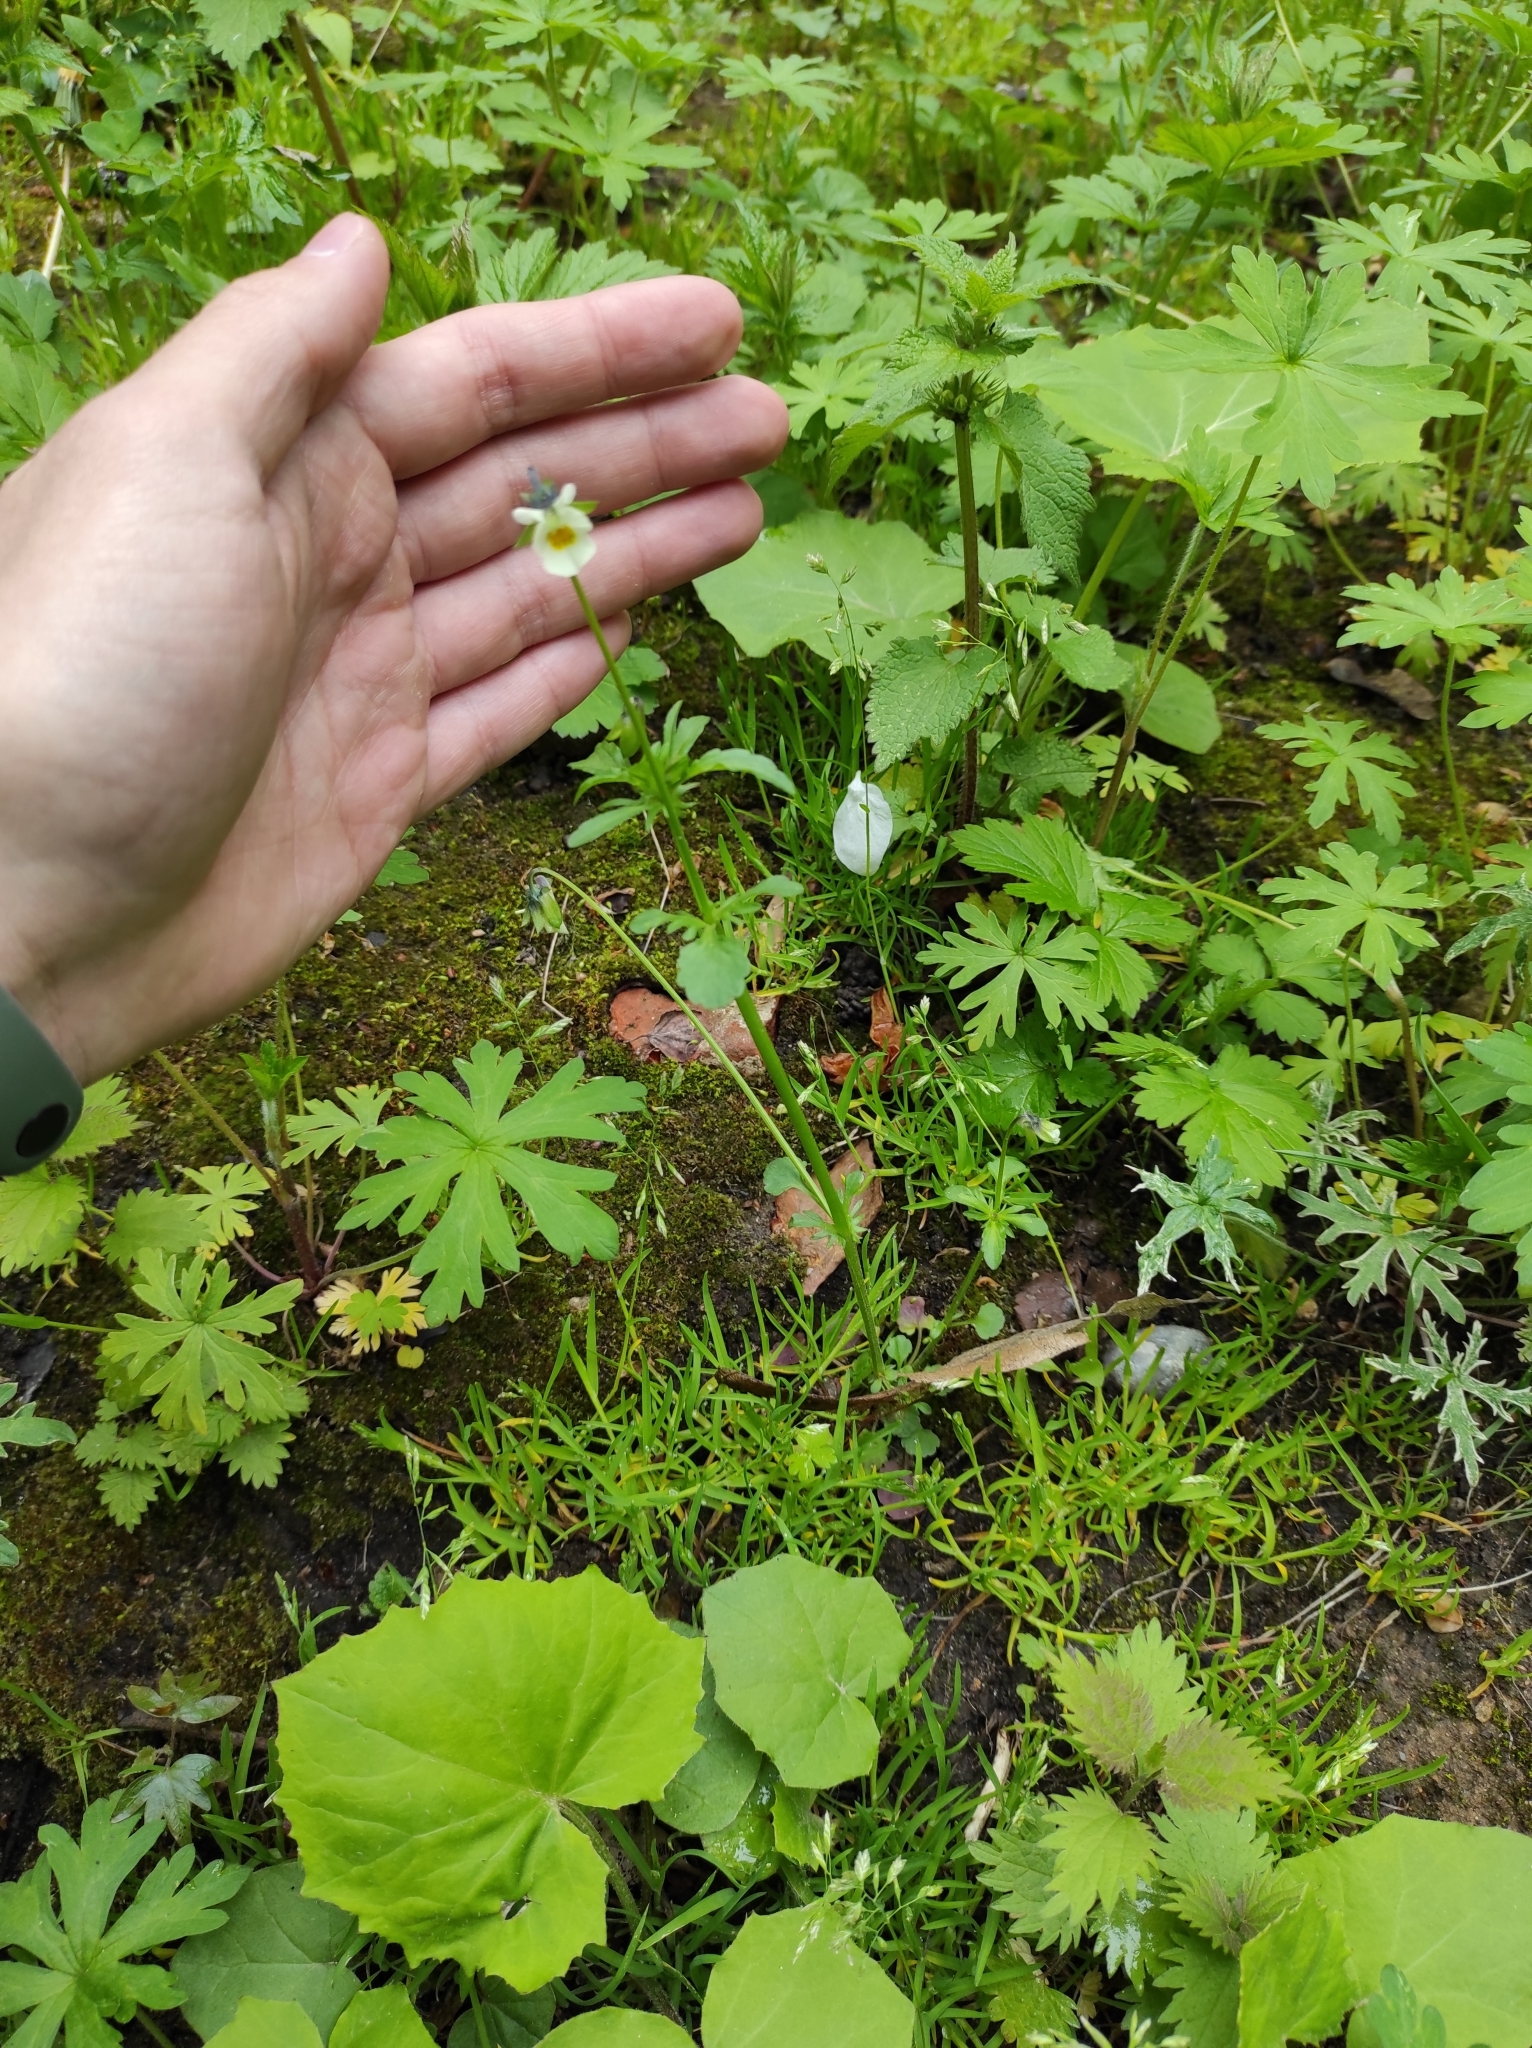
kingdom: Plantae
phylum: Tracheophyta
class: Magnoliopsida
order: Malpighiales
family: Violaceae
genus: Viola
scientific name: Viola arvensis
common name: Field pansy
